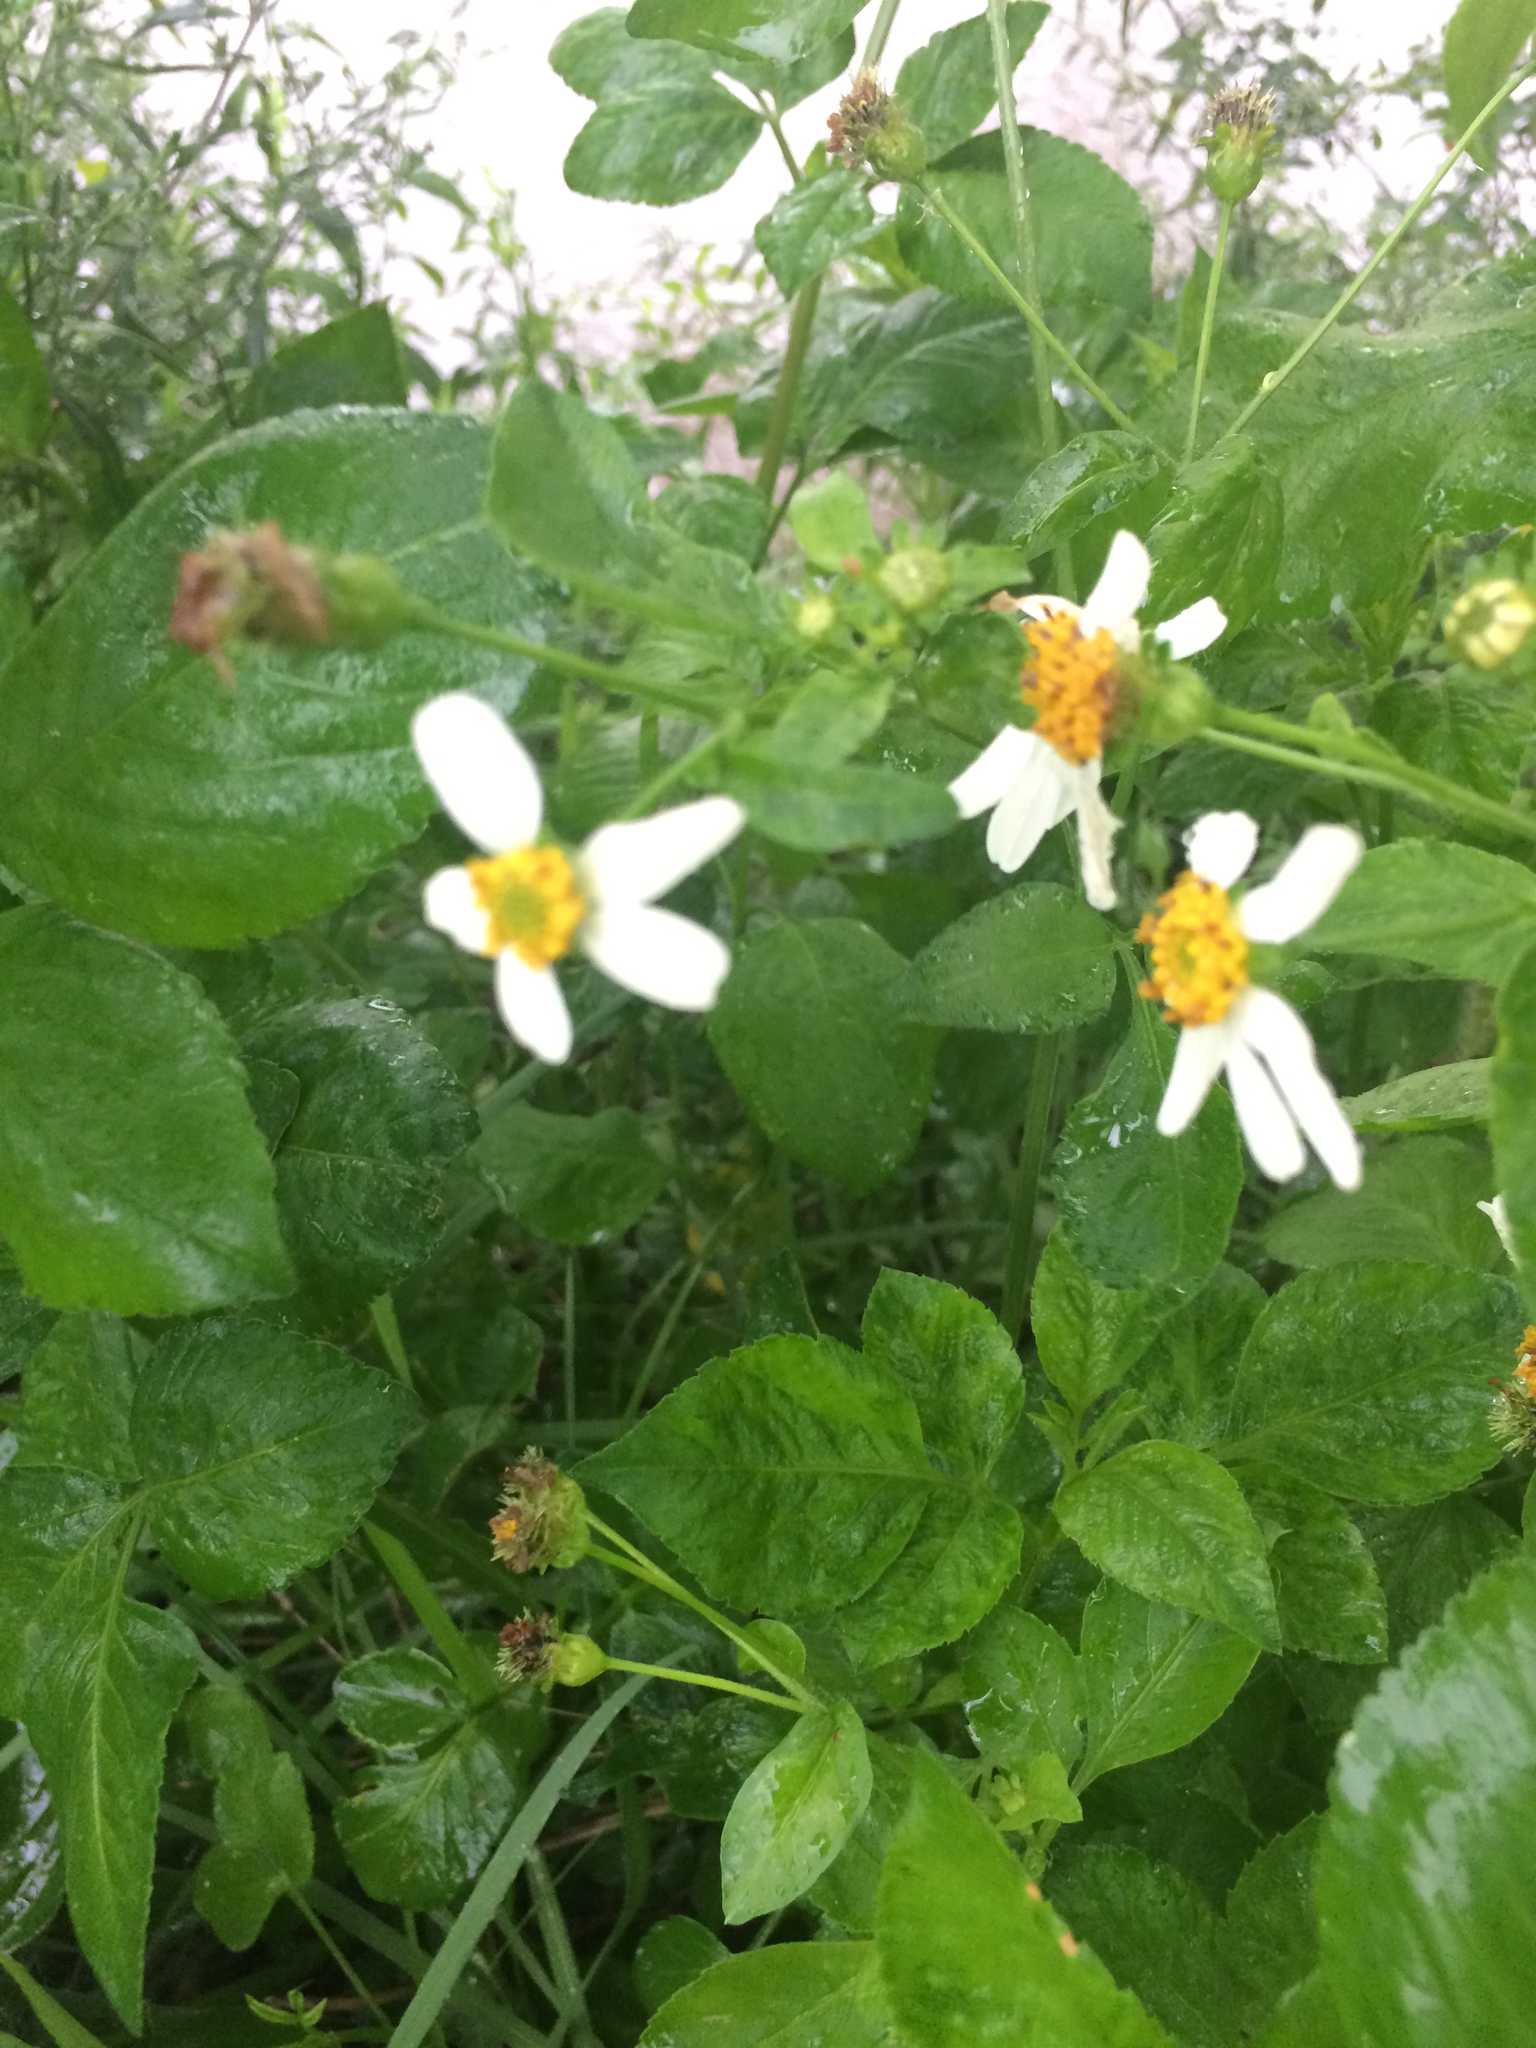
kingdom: Plantae
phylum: Tracheophyta
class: Magnoliopsida
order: Asterales
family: Asteraceae
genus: Bidens
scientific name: Bidens alba
